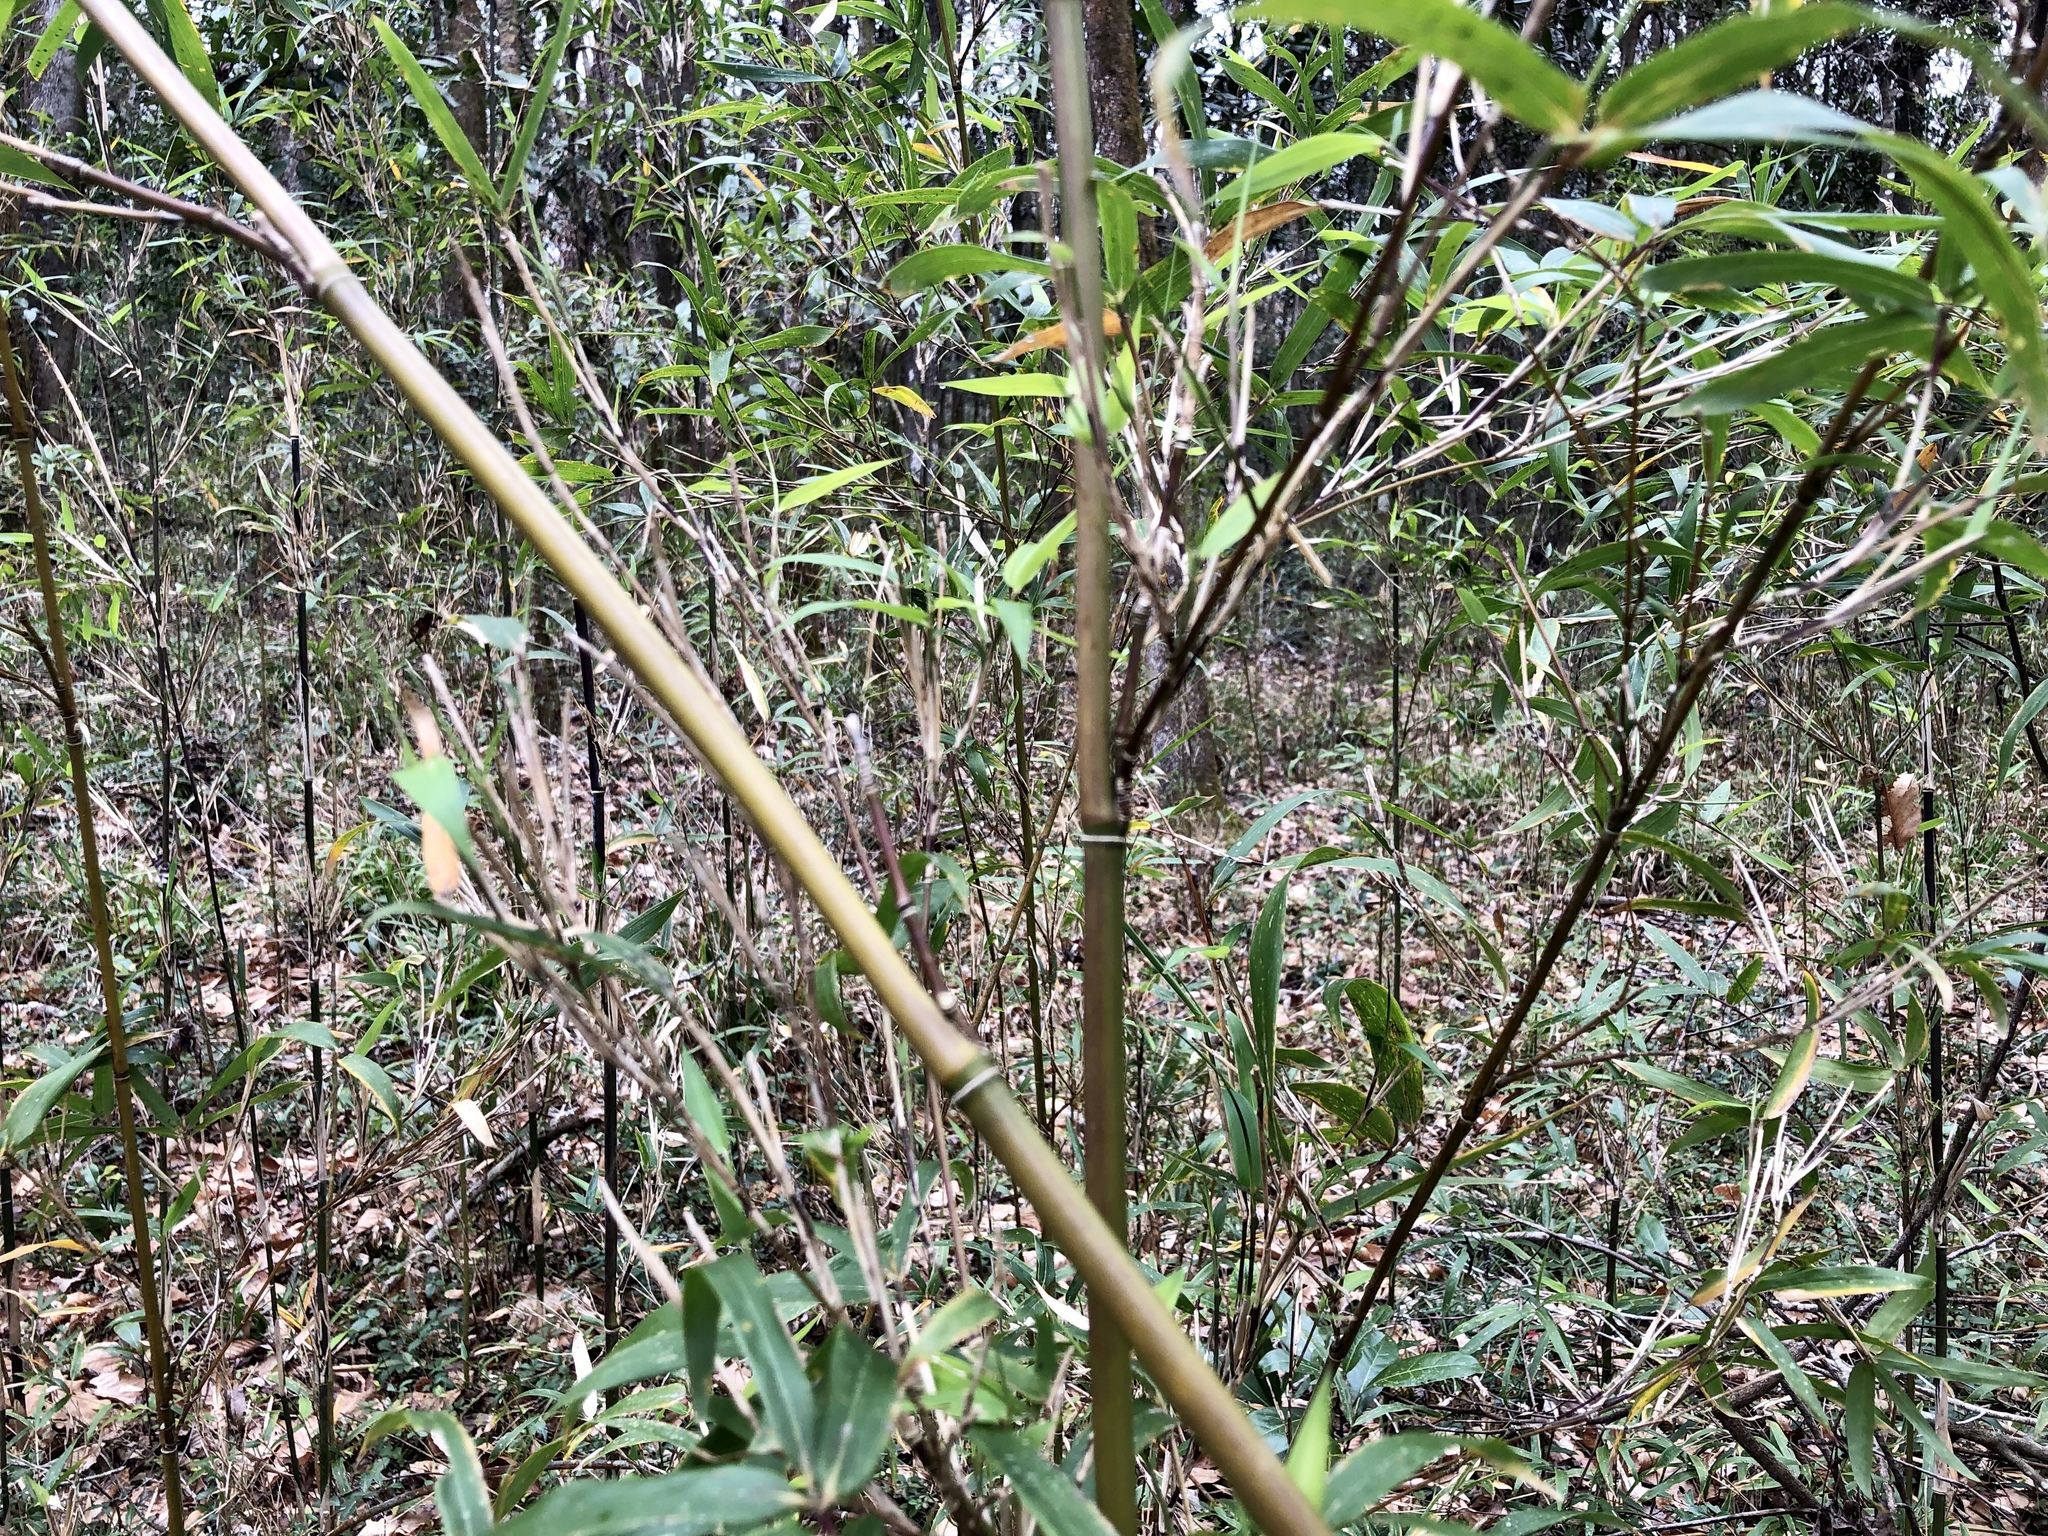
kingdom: Plantae
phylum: Tracheophyta
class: Liliopsida
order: Poales
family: Poaceae
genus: Arundinaria
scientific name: Arundinaria gigantea
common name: Giant cane
